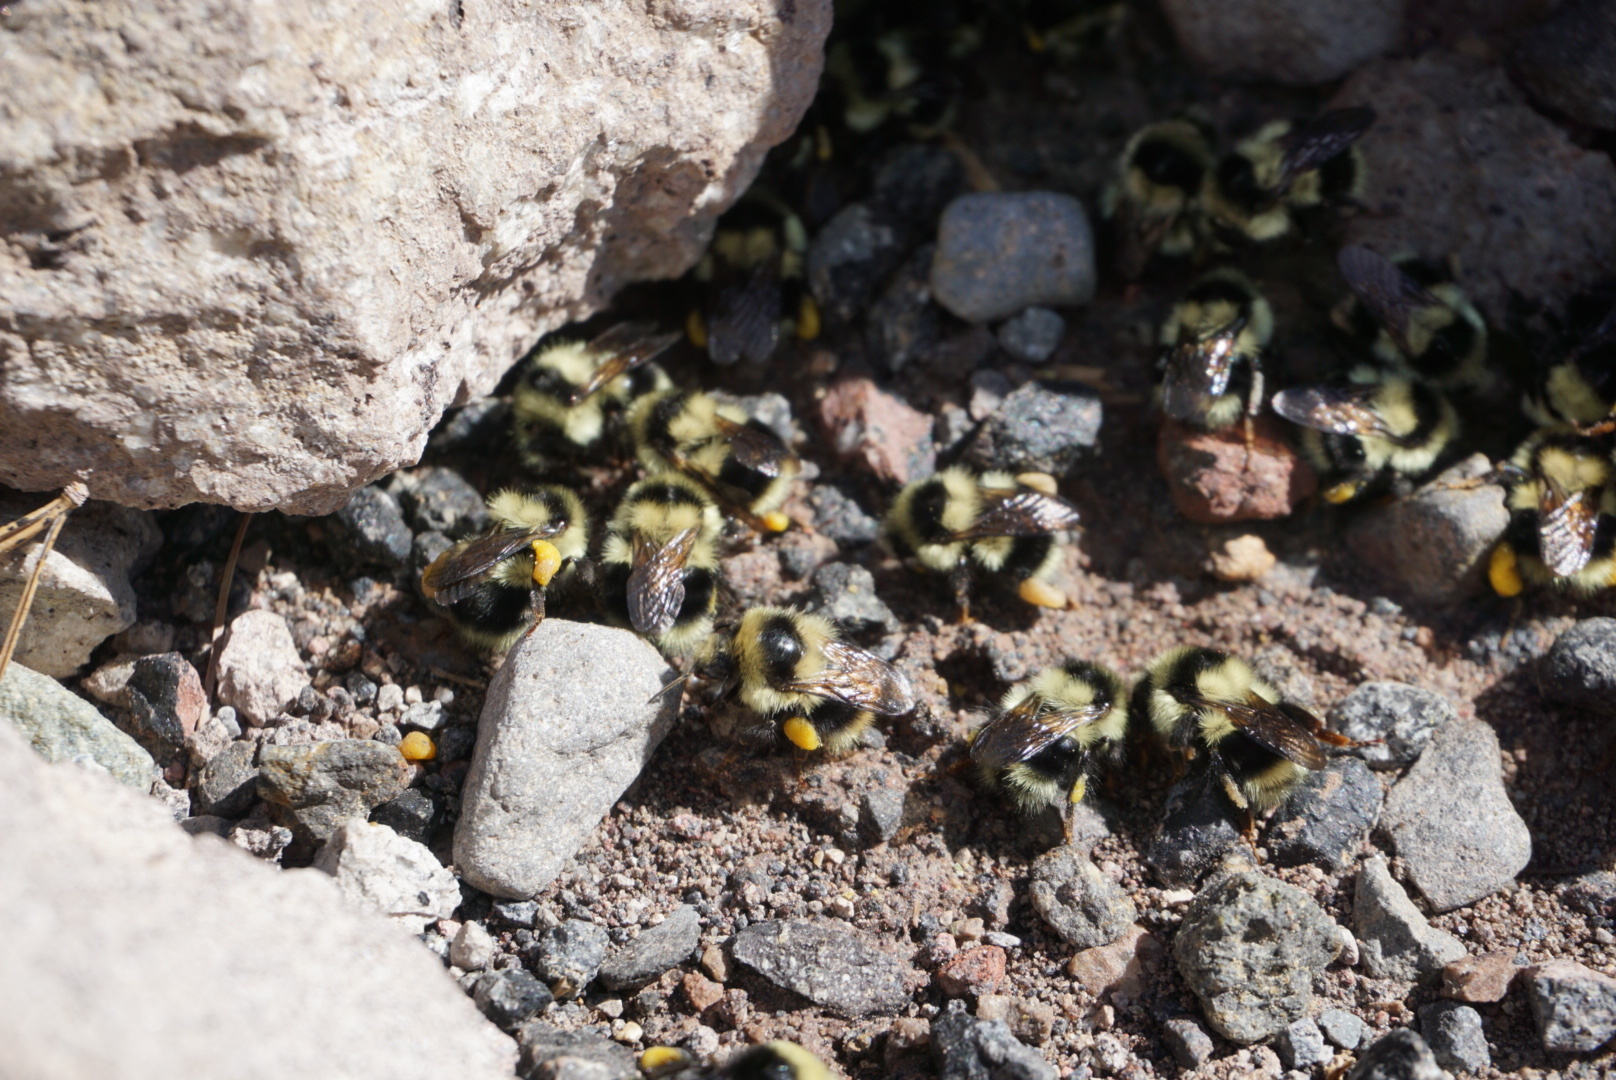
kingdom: Animalia
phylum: Arthropoda
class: Insecta
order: Hymenoptera
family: Apidae
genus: Bombus
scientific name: Bombus melanopygus
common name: Black tail bumble bee
